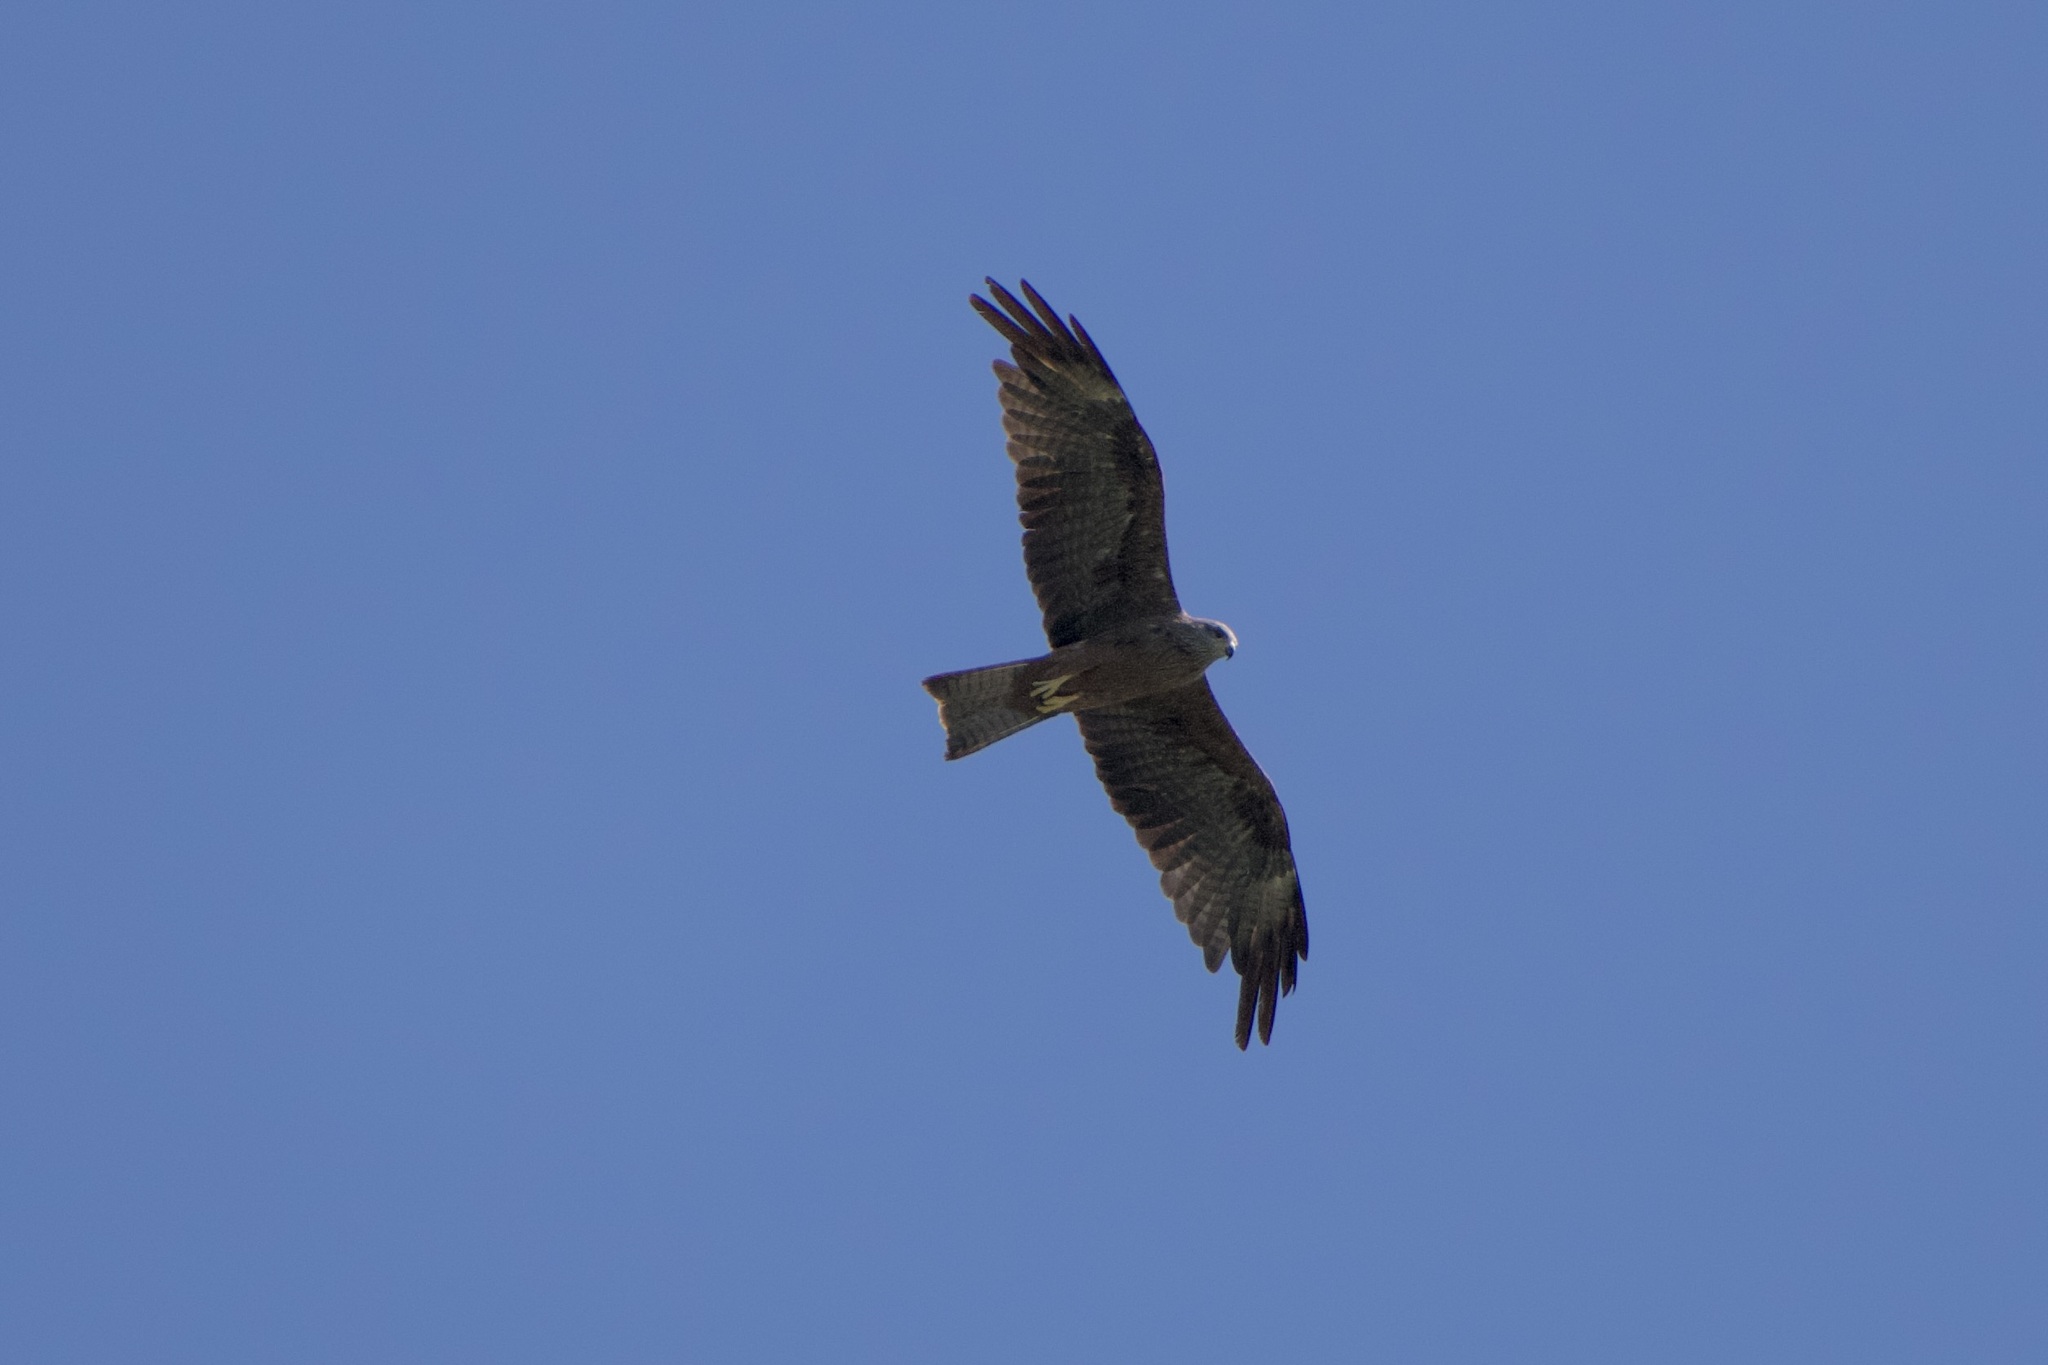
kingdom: Animalia
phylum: Chordata
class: Aves
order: Accipitriformes
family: Accipitridae
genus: Milvus
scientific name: Milvus migrans
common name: Black kite
